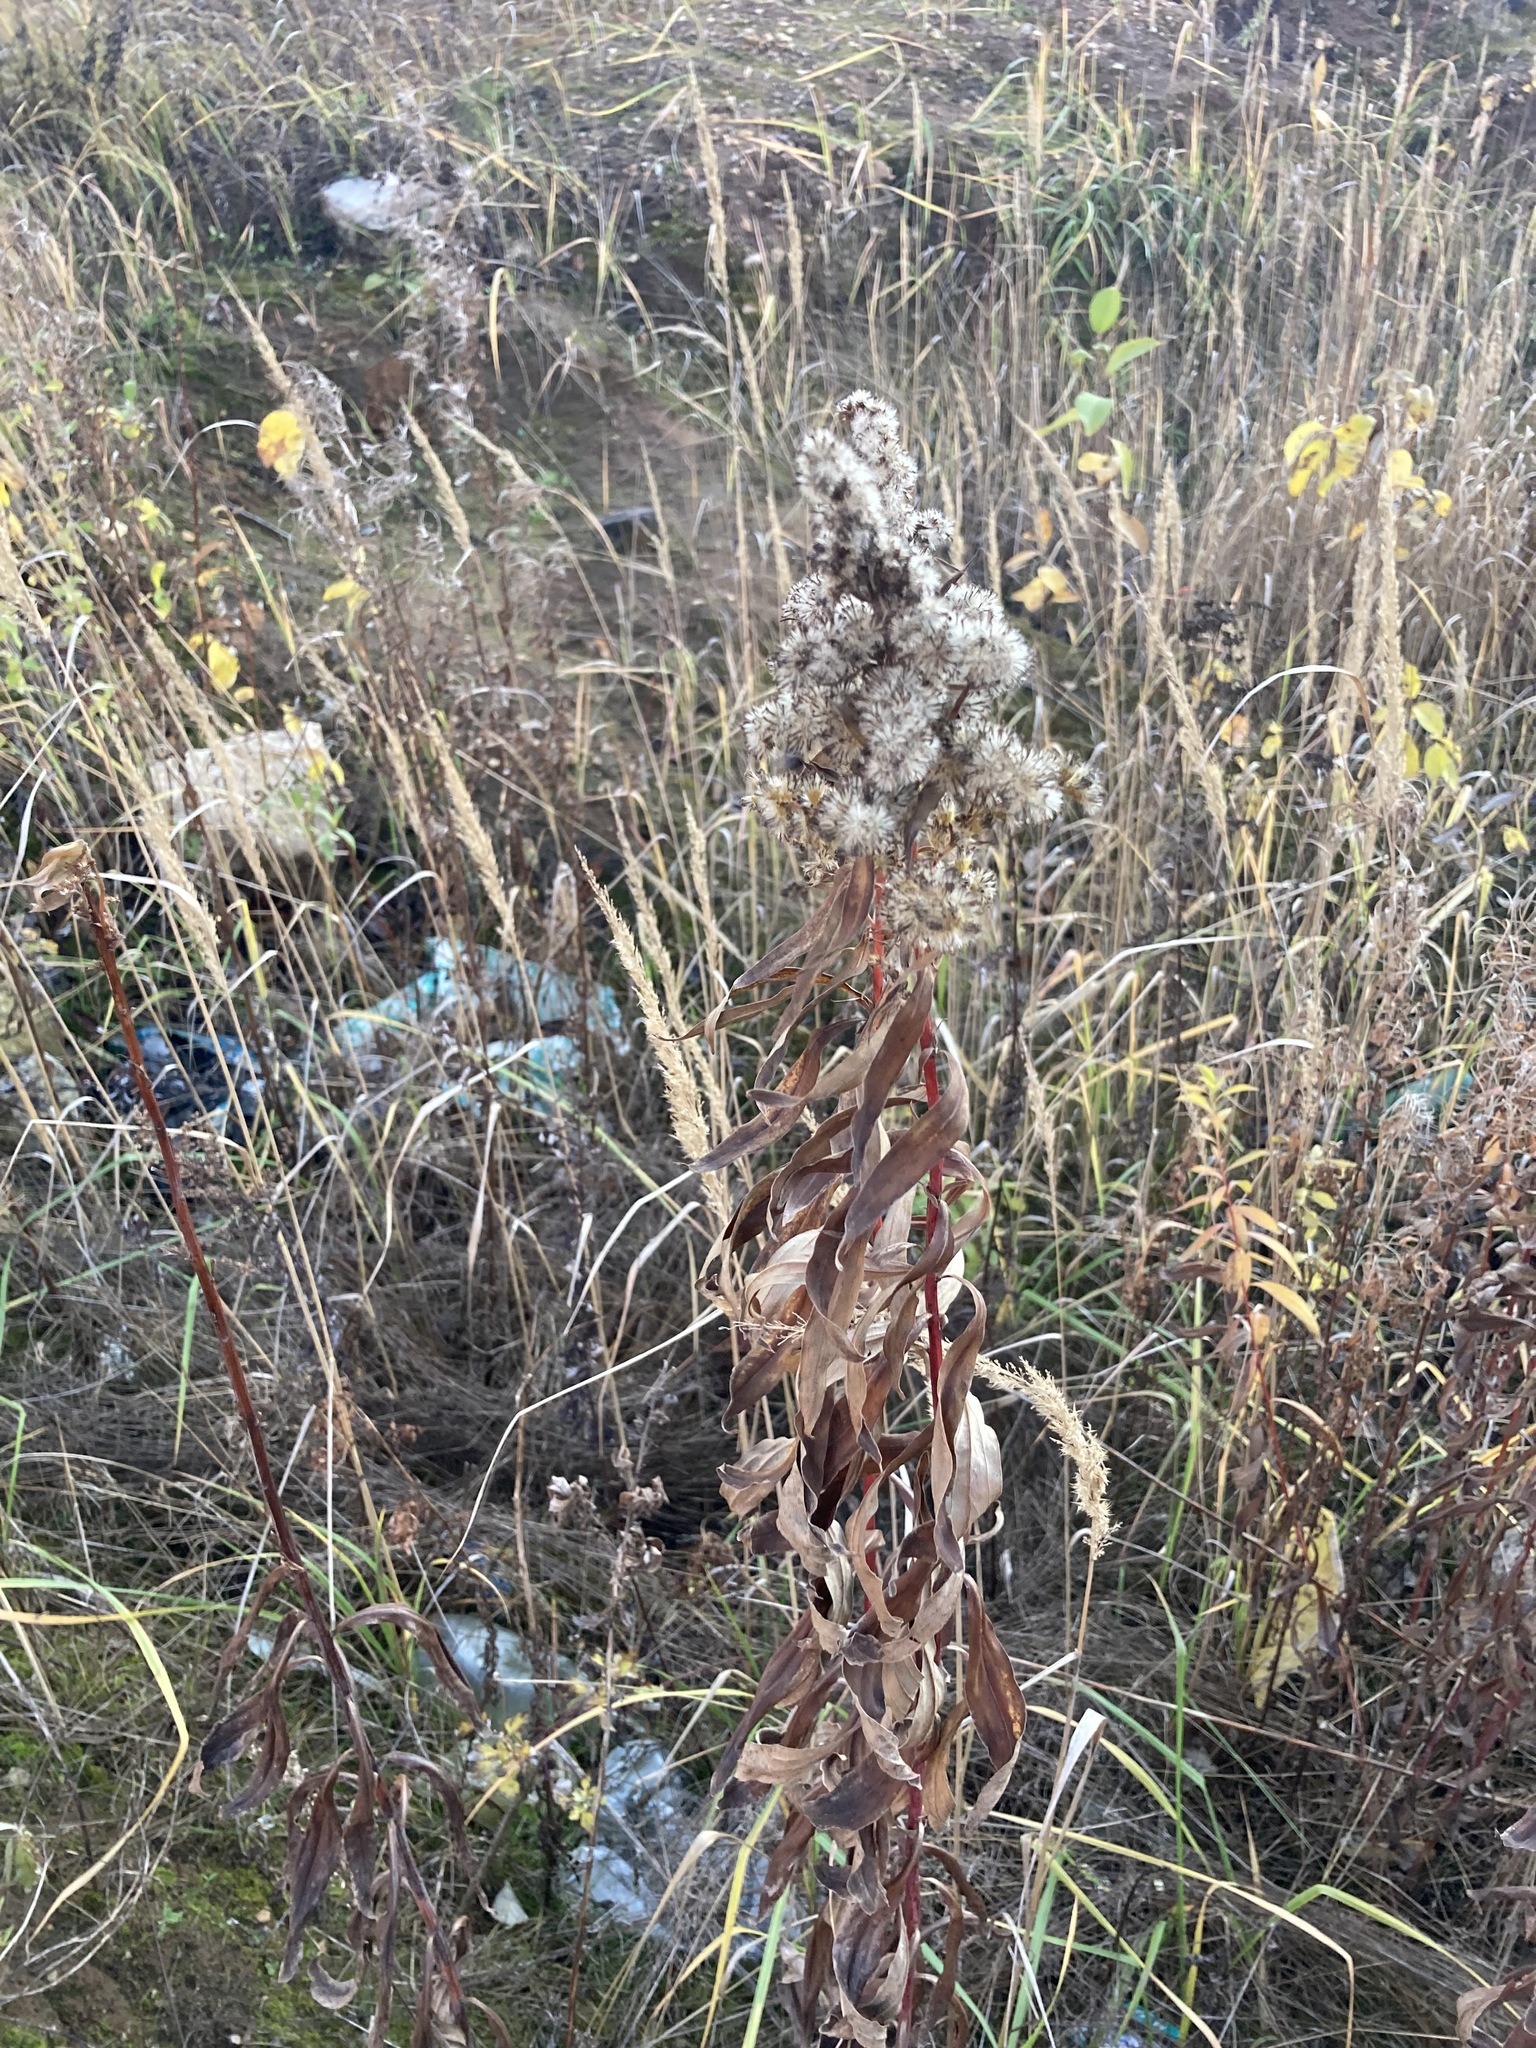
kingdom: Plantae
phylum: Tracheophyta
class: Magnoliopsida
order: Asterales
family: Asteraceae
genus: Solidago
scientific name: Solidago gigantea
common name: Giant goldenrod
